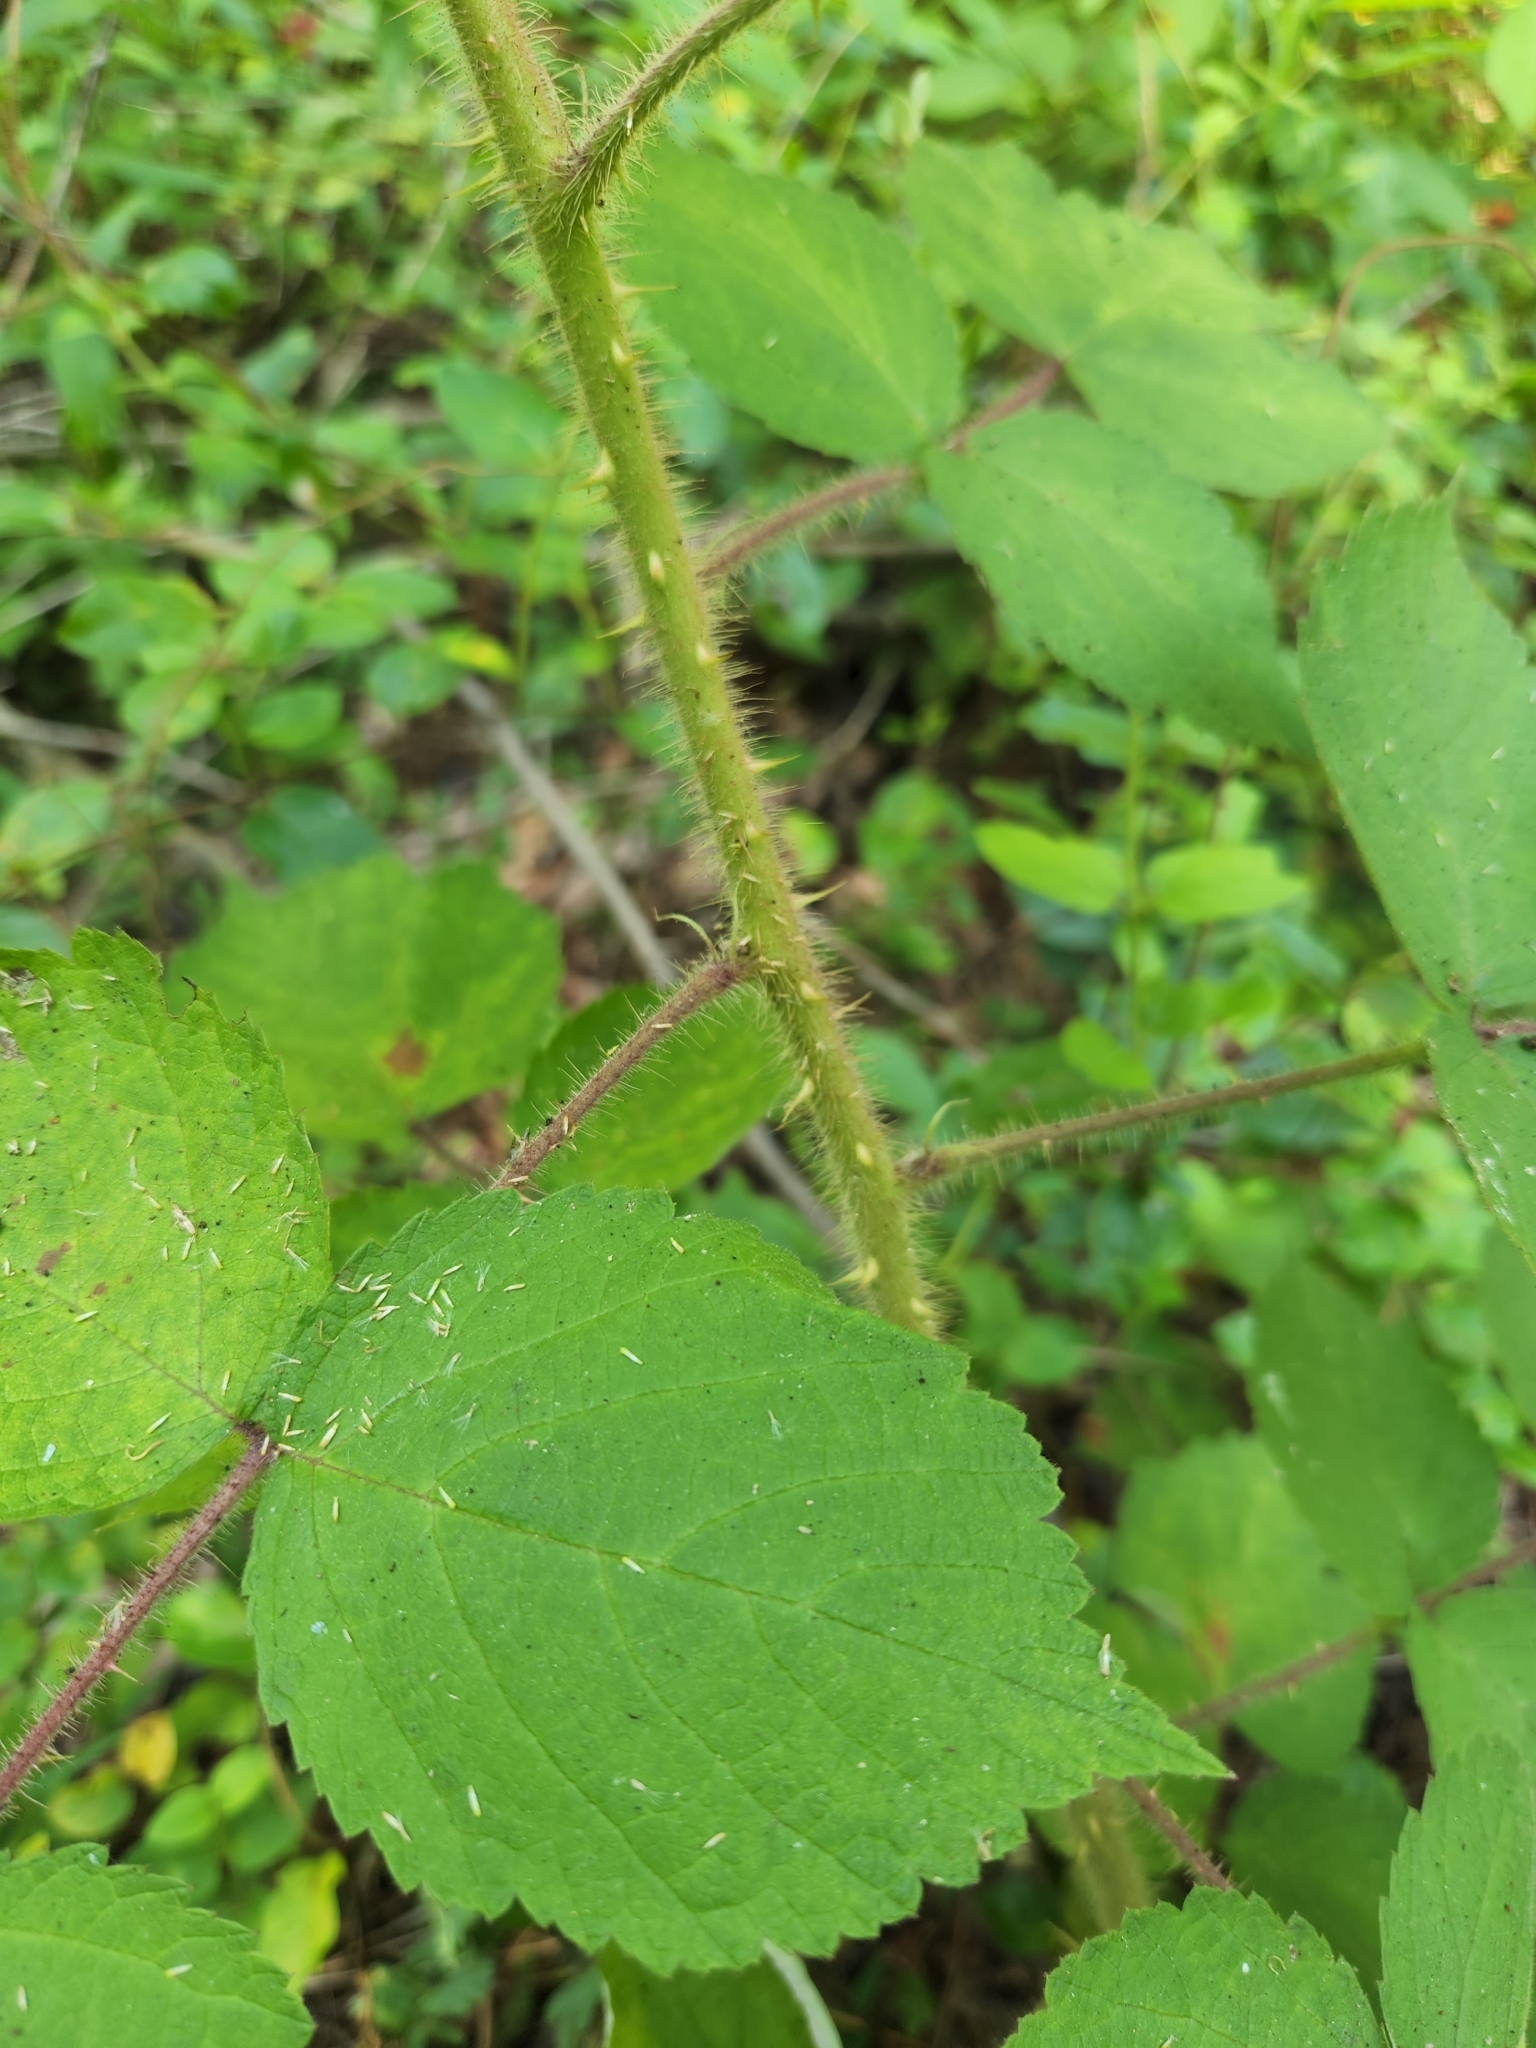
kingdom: Plantae
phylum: Tracheophyta
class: Magnoliopsida
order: Rosales
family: Rosaceae
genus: Rubus
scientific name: Rubus phoenicolasius
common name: Japanese wineberry
